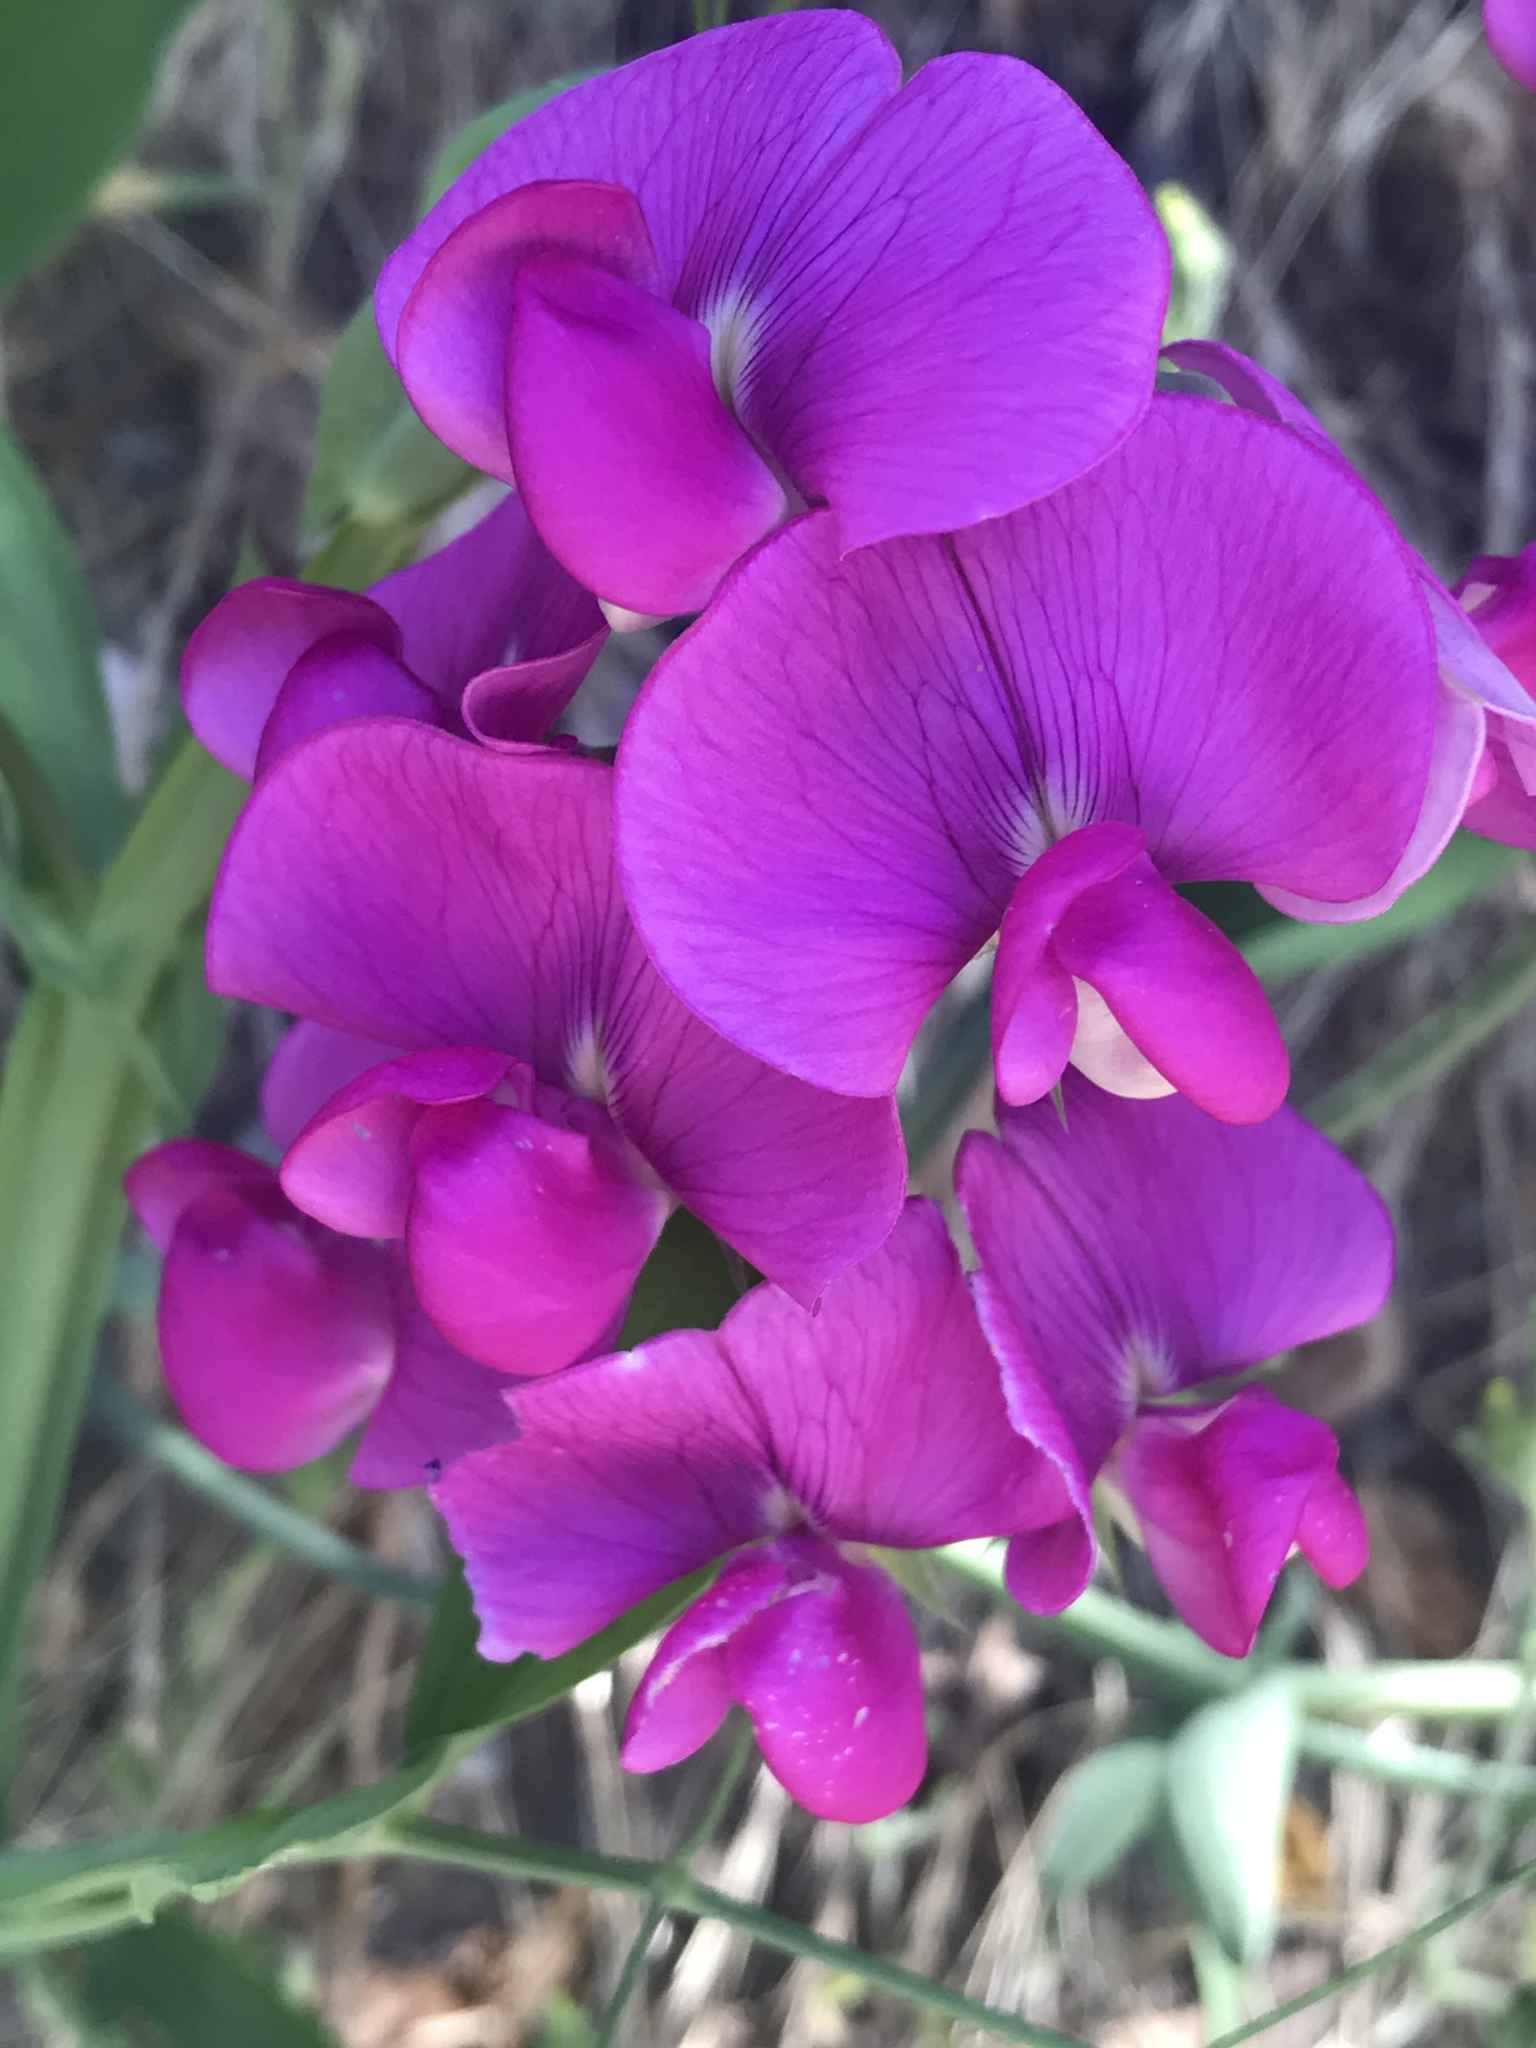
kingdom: Plantae
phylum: Tracheophyta
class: Magnoliopsida
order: Fabales
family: Fabaceae
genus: Lathyrus
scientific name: Lathyrus latifolius
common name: Perennial pea
